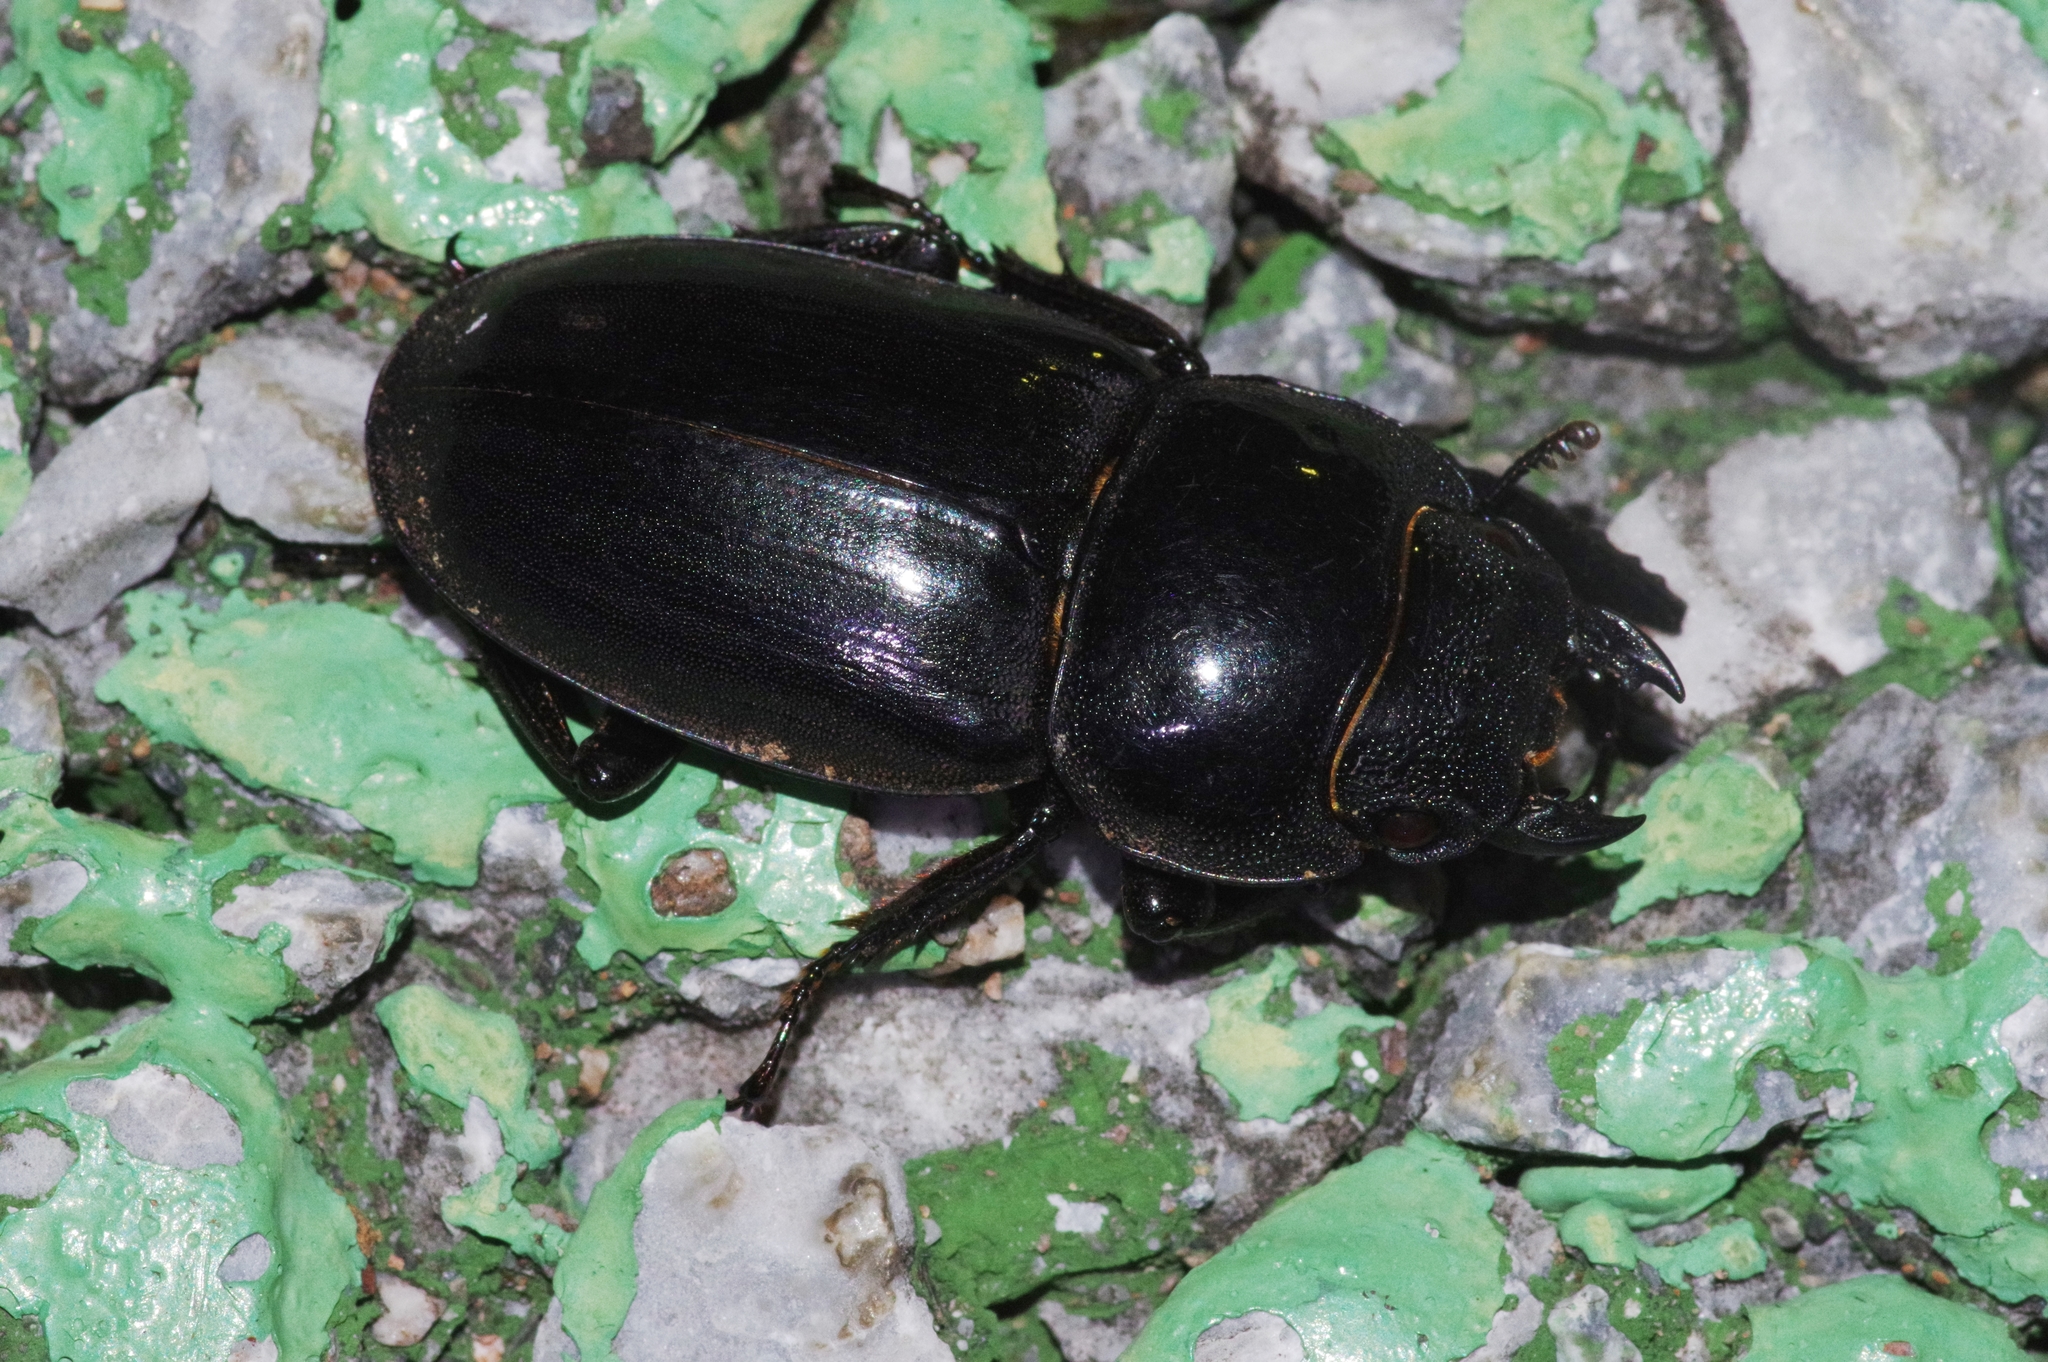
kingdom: Animalia
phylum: Arthropoda
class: Insecta
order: Coleoptera
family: Lucanidae
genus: Serrognathus
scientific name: Serrognathus titanus
